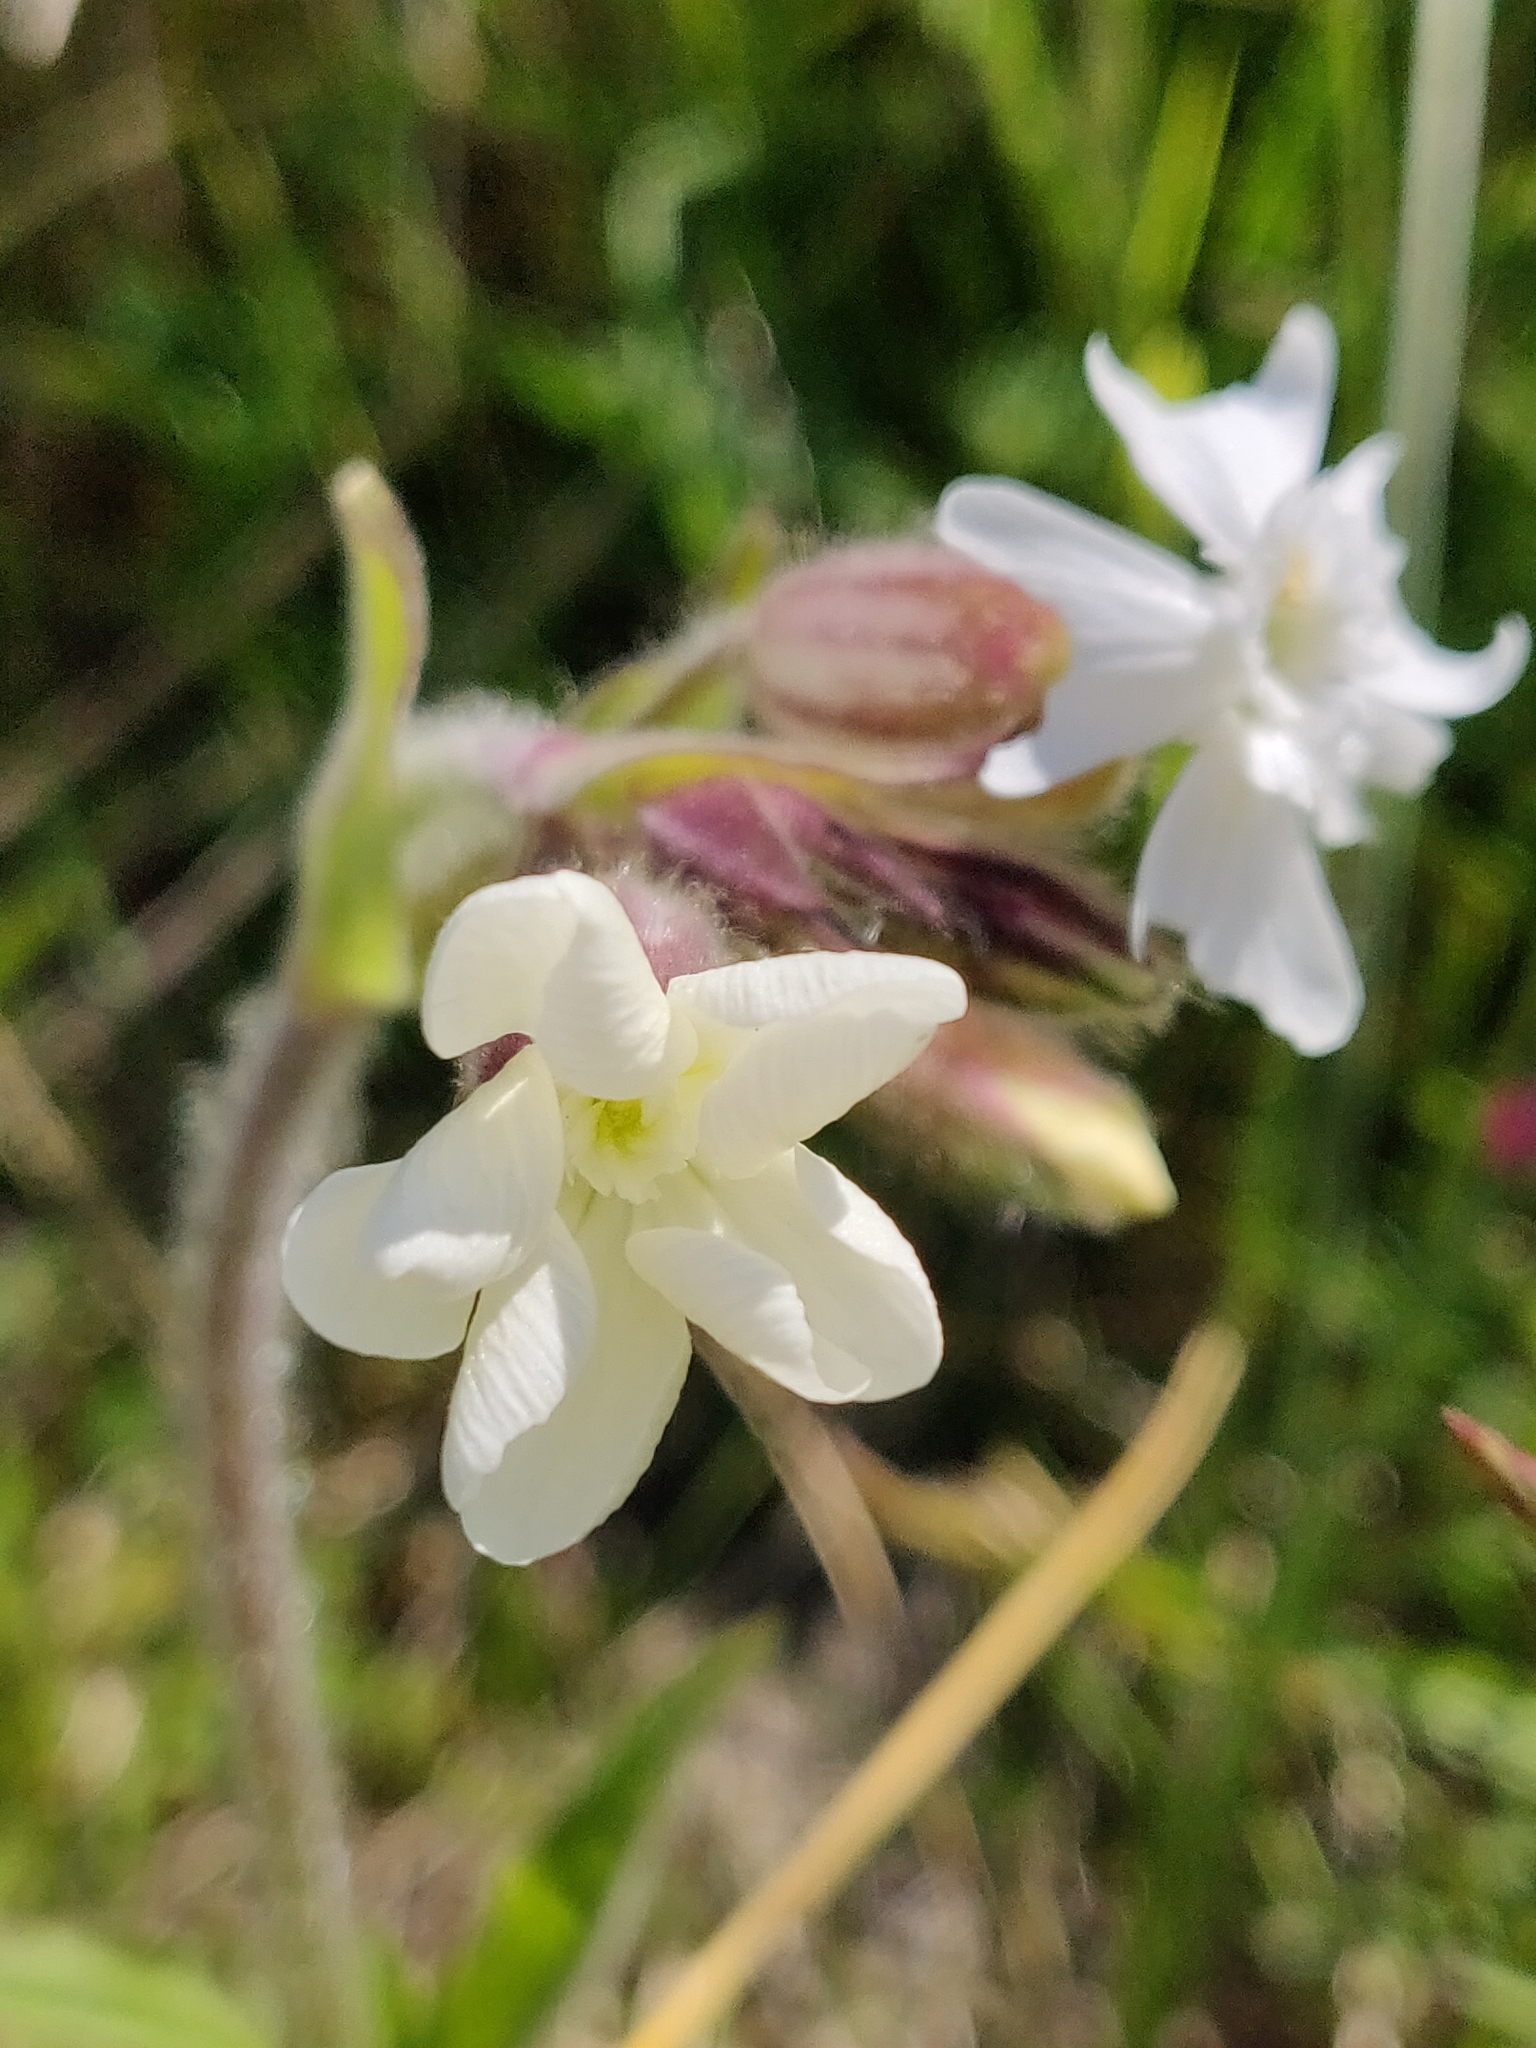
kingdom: Plantae
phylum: Tracheophyta
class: Magnoliopsida
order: Caryophyllales
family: Caryophyllaceae
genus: Silene
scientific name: Silene latifolia
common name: White campion
